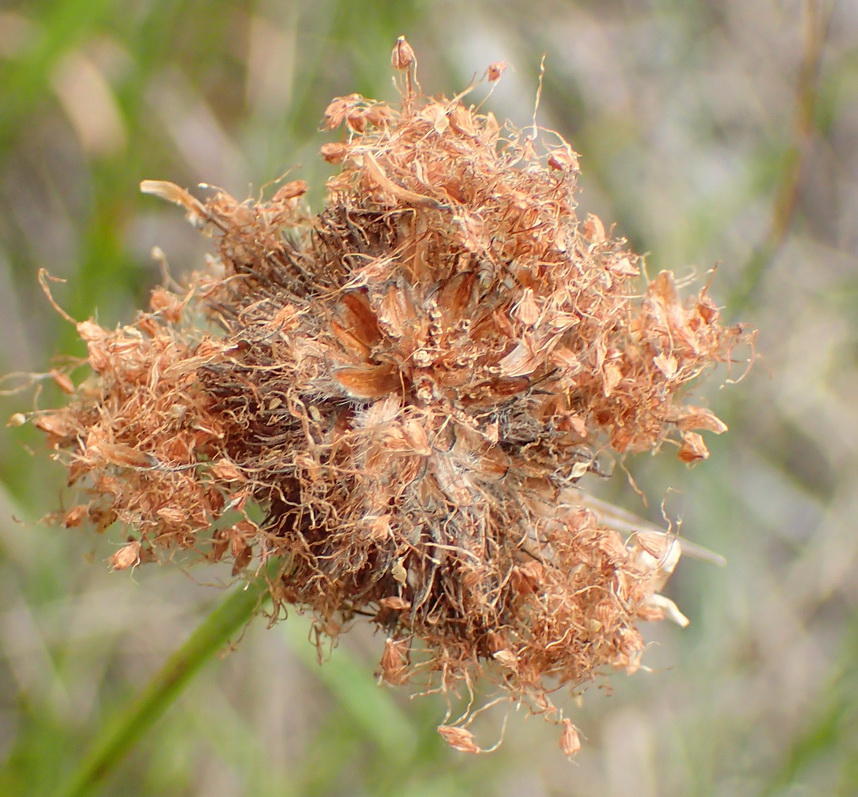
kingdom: Plantae
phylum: Tracheophyta
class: Liliopsida
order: Poales
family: Cyperaceae
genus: Fuirena
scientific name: Fuirena hirsuta
